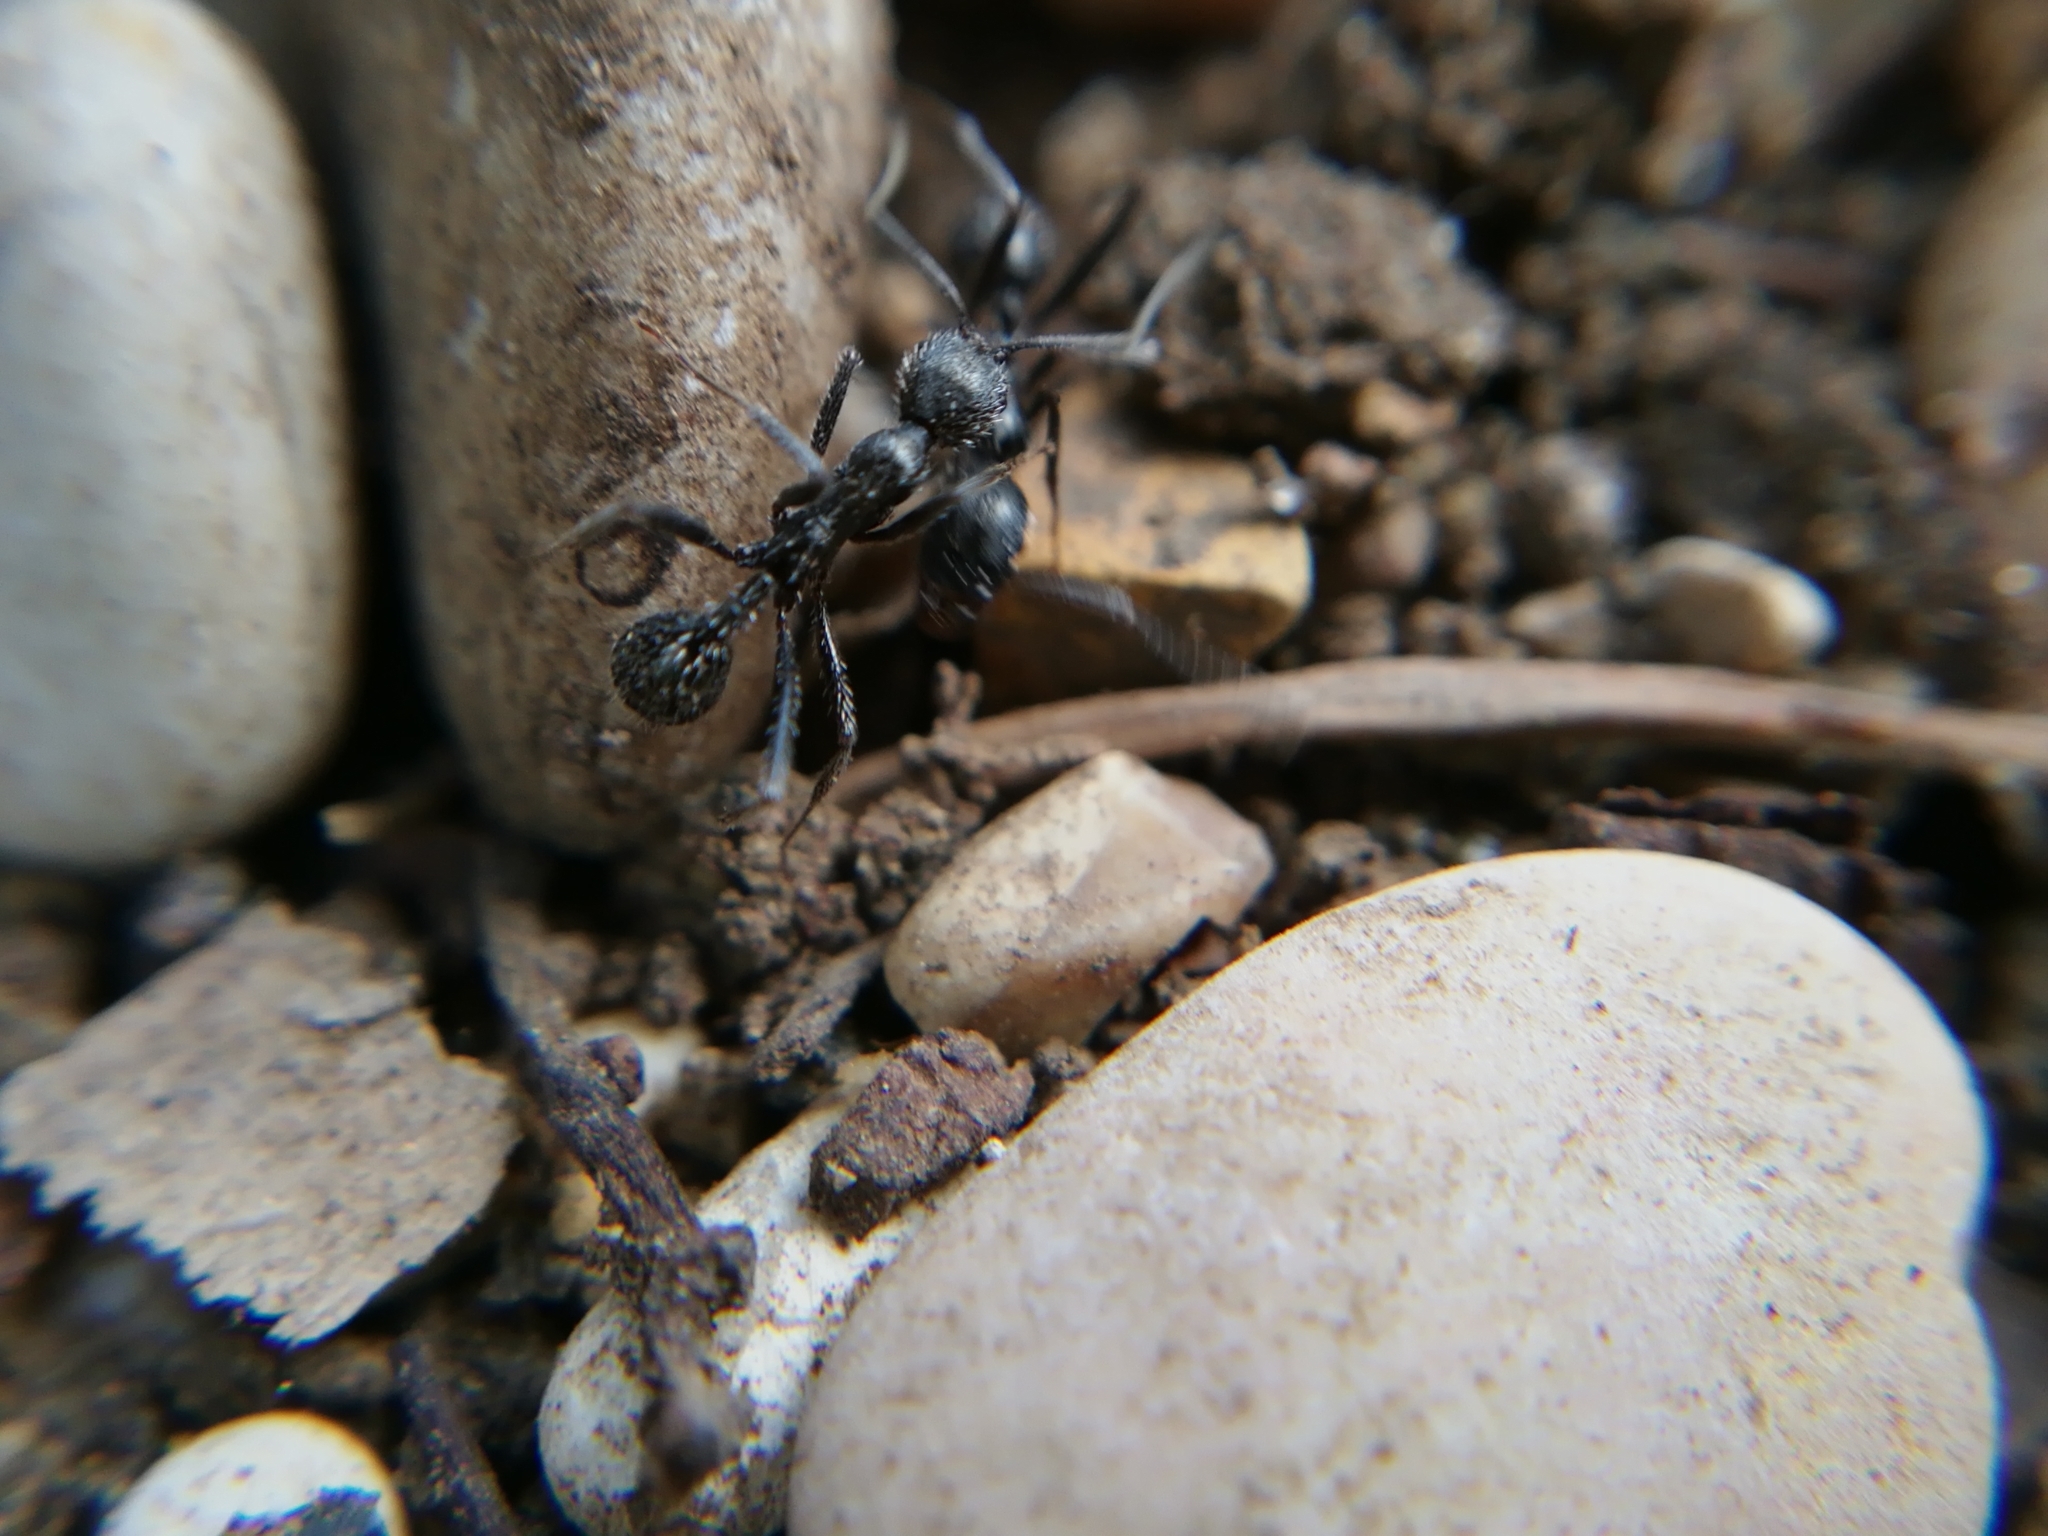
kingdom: Animalia
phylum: Arthropoda
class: Insecta
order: Hymenoptera
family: Formicidae
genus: Aphaenogaster
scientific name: Aphaenogaster spinosa
